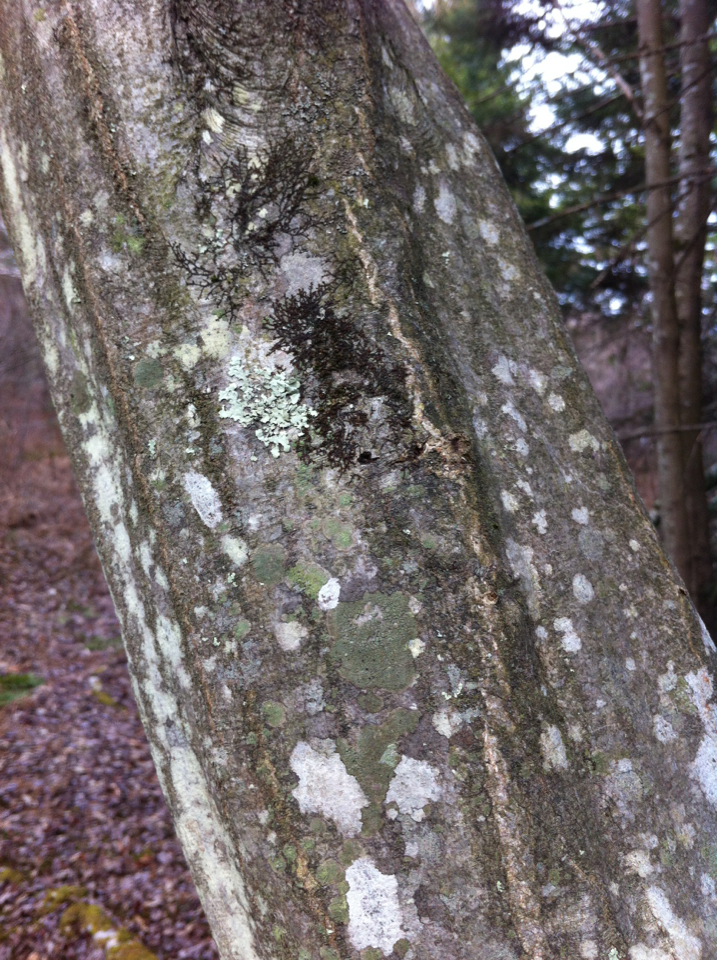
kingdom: Plantae
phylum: Tracheophyta
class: Magnoliopsida
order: Fagales
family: Betulaceae
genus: Carpinus
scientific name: Carpinus caroliniana
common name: American hornbeam
